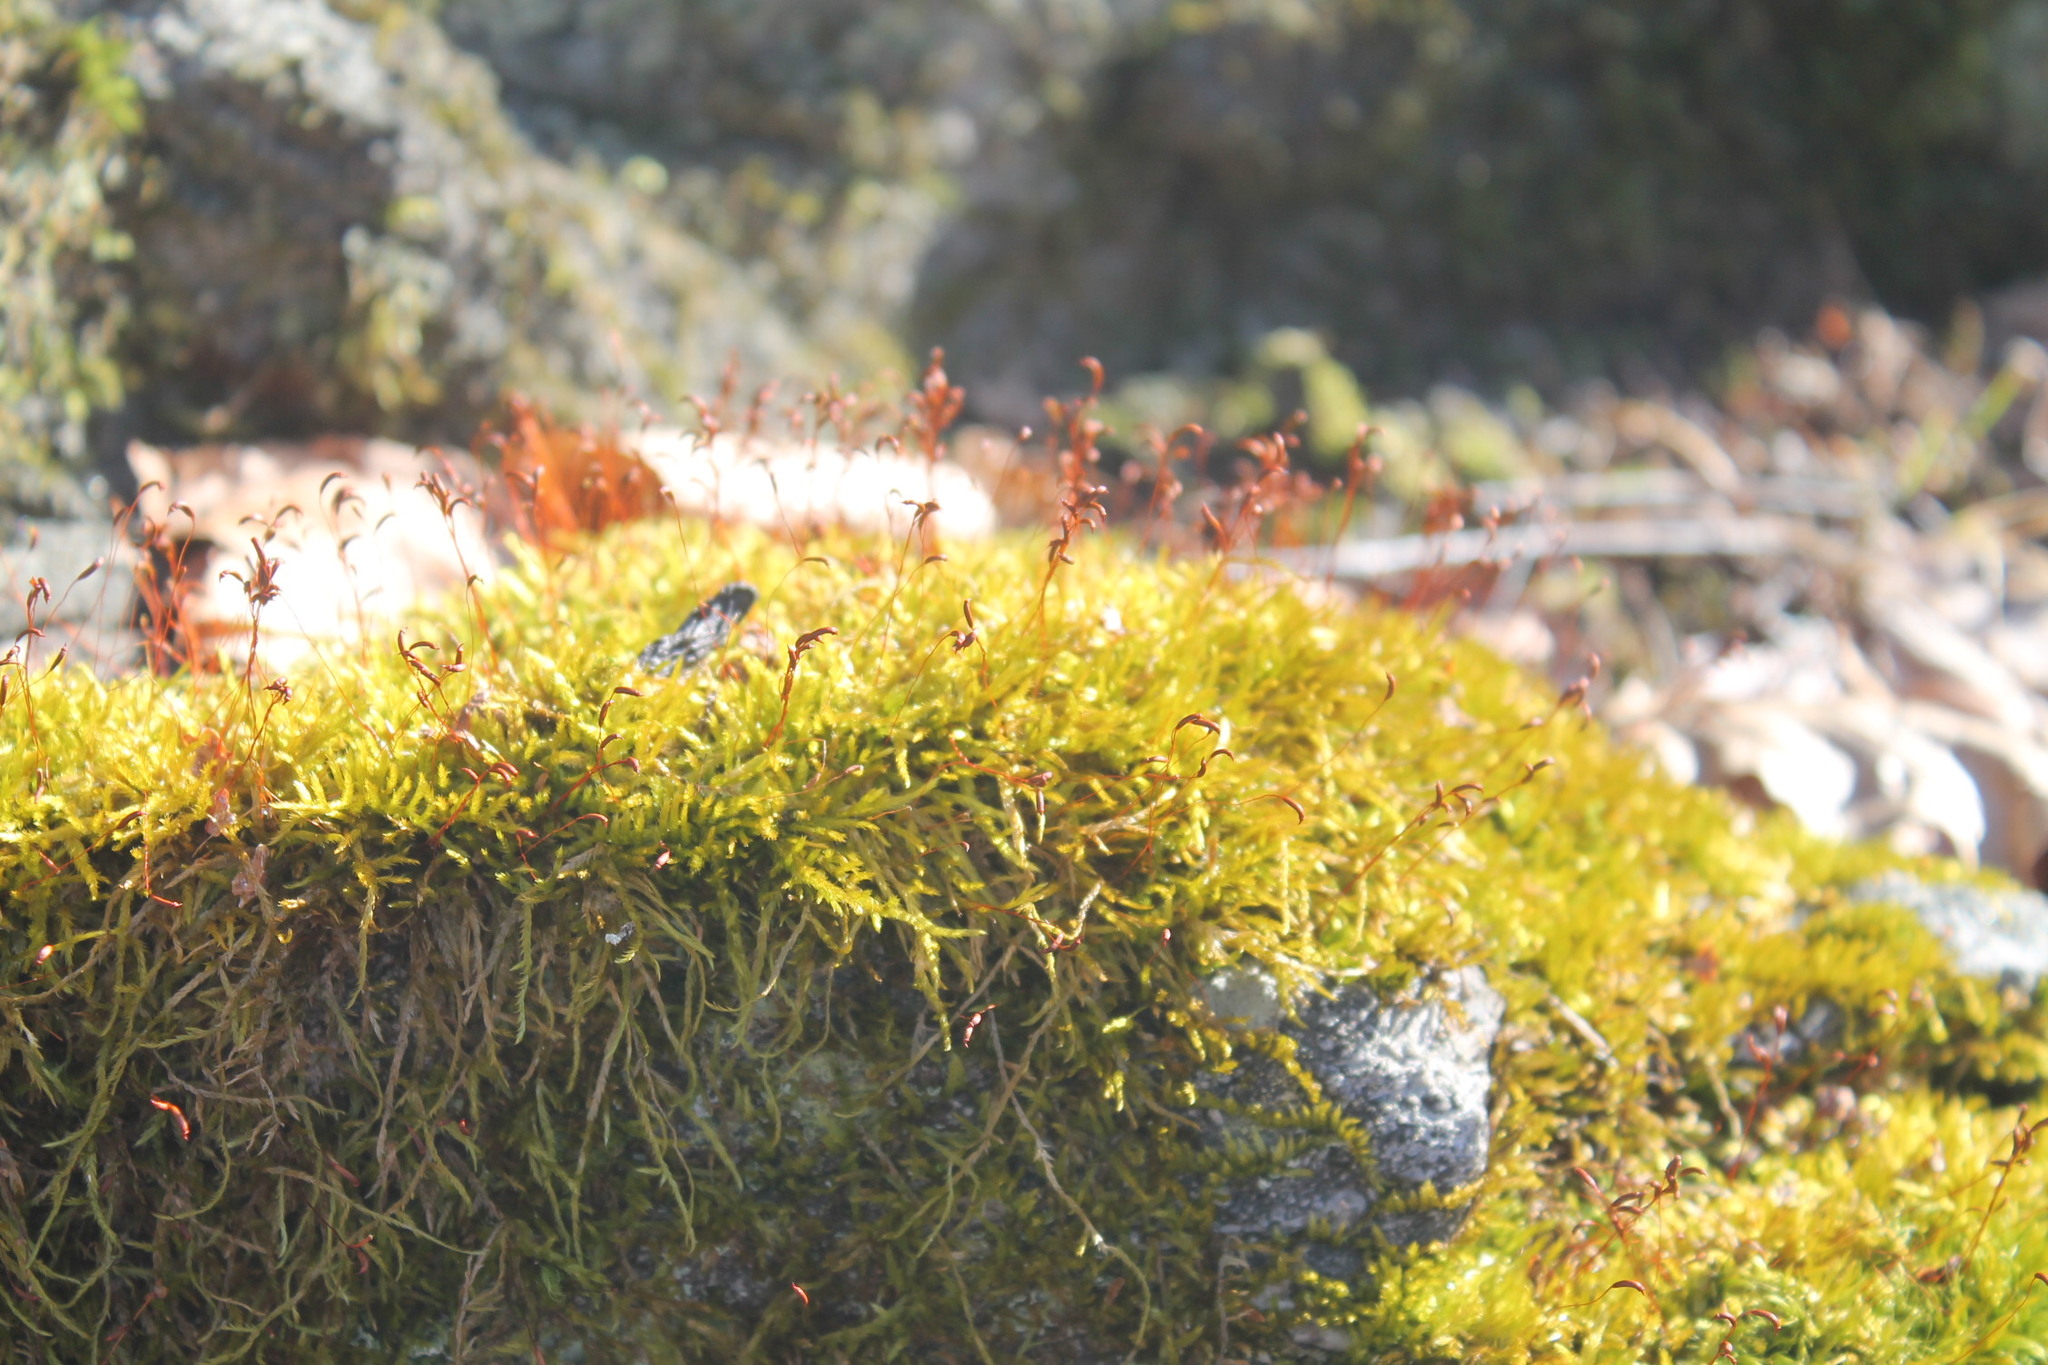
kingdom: Plantae
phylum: Bryophyta
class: Bryopsida
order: Hypnales
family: Callicladiaceae
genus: Callicladium
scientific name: Callicladium haldanianum
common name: Beautiful branch moss
